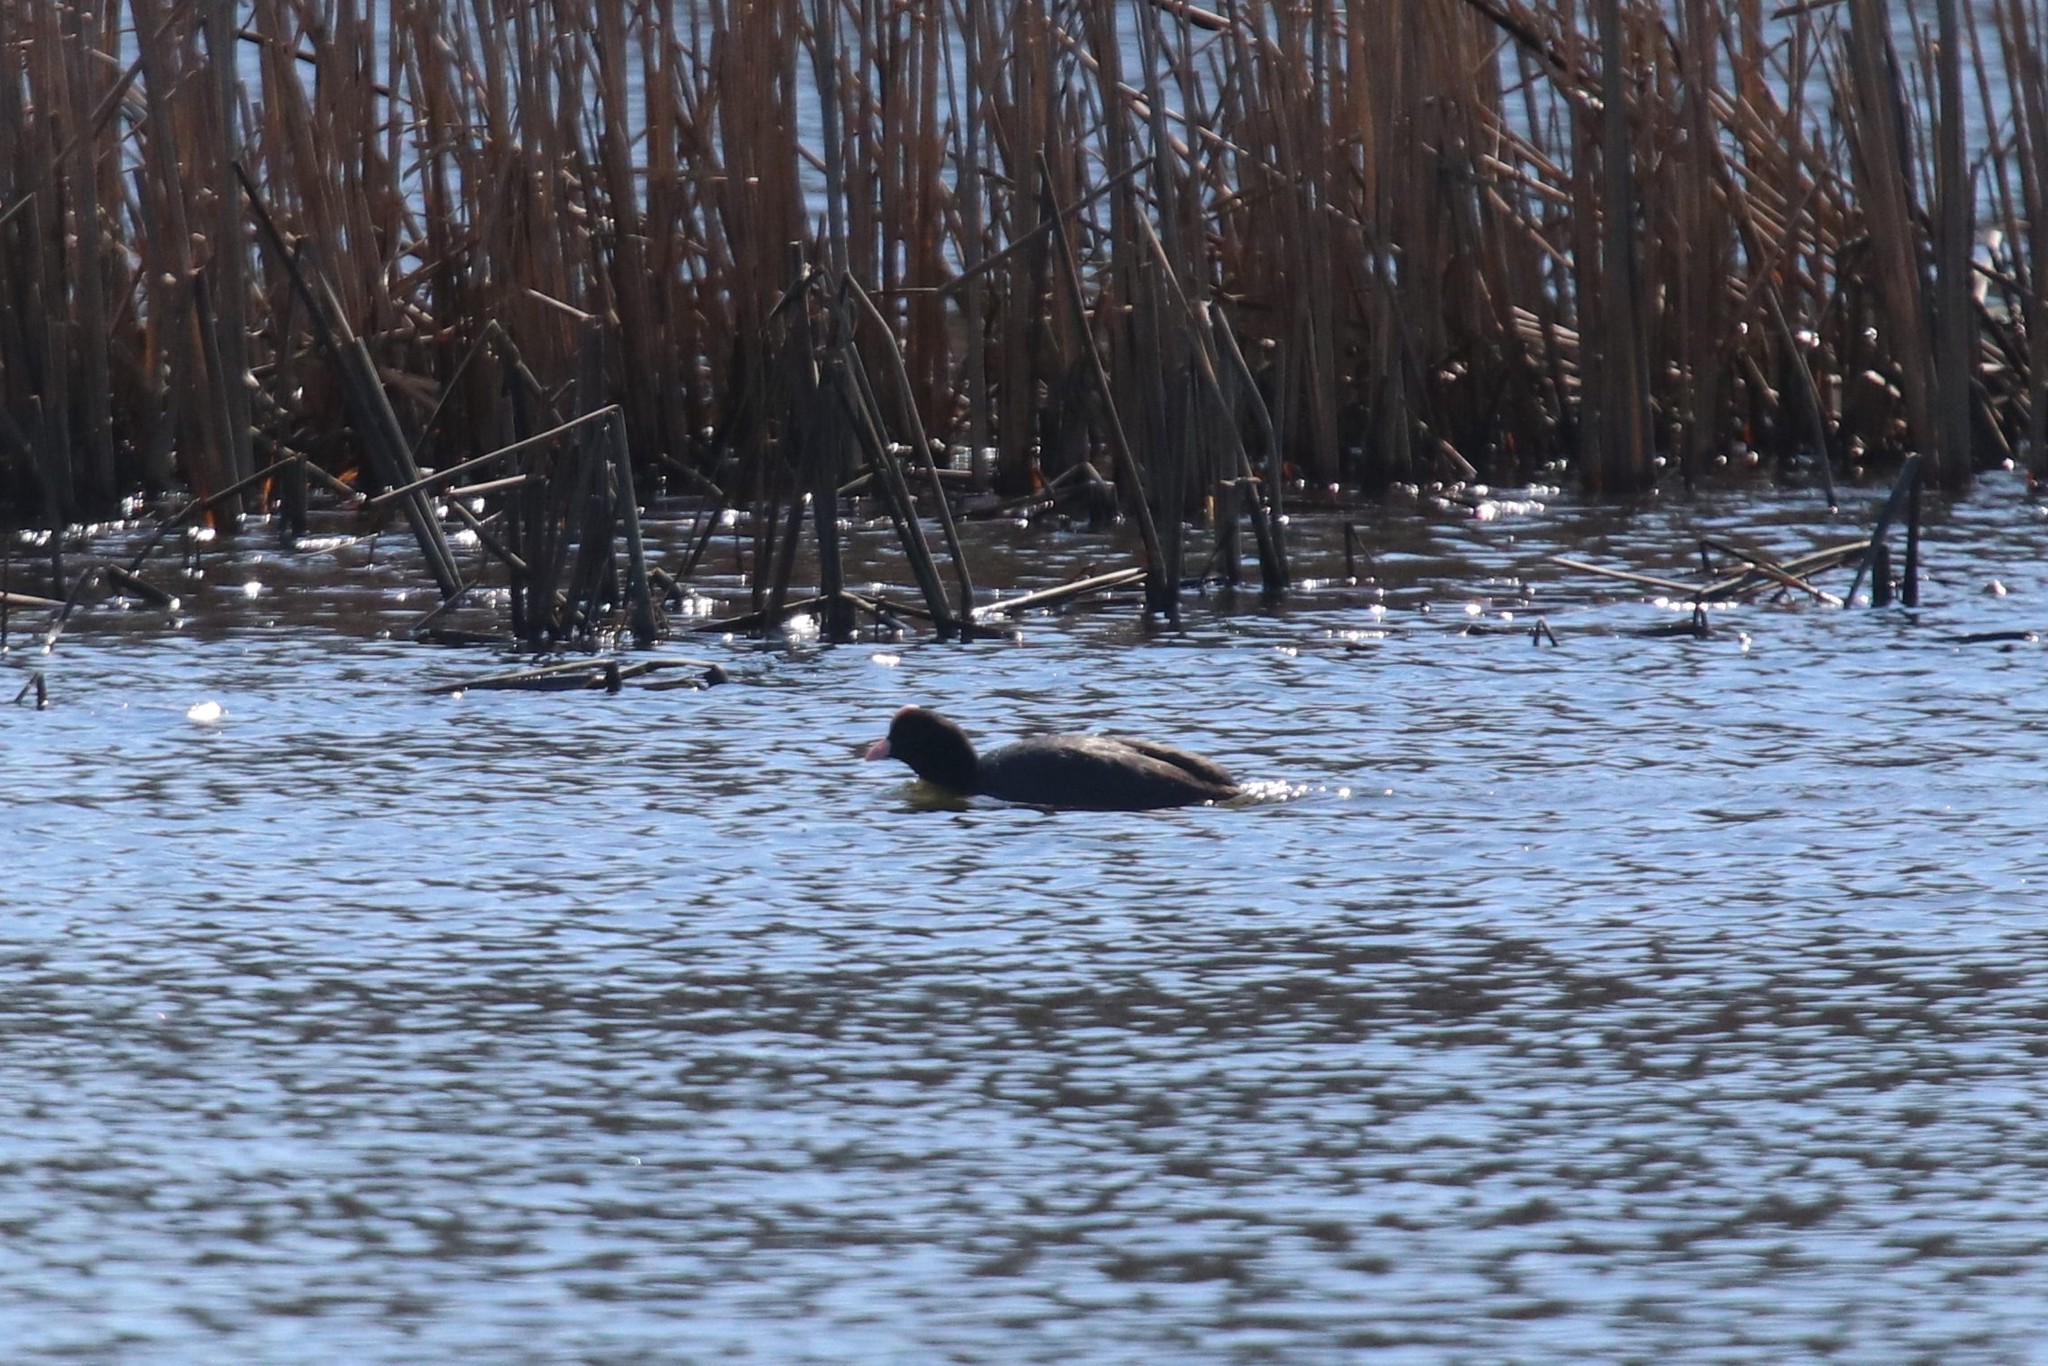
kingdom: Animalia
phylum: Chordata
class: Aves
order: Gruiformes
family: Rallidae
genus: Fulica
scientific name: Fulica atra
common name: Eurasian coot
